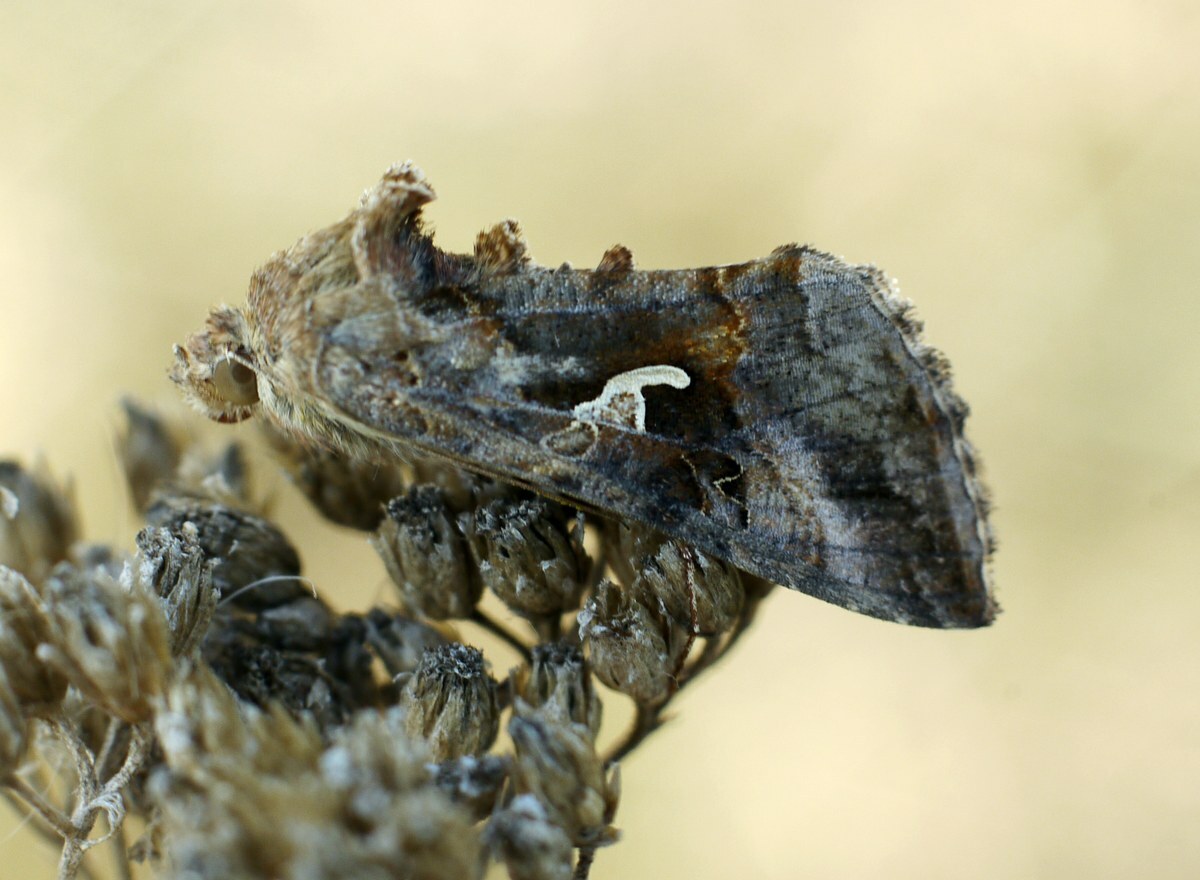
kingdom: Animalia
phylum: Arthropoda
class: Insecta
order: Lepidoptera
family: Noctuidae
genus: Autographa
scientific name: Autographa gamma
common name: Silver y
